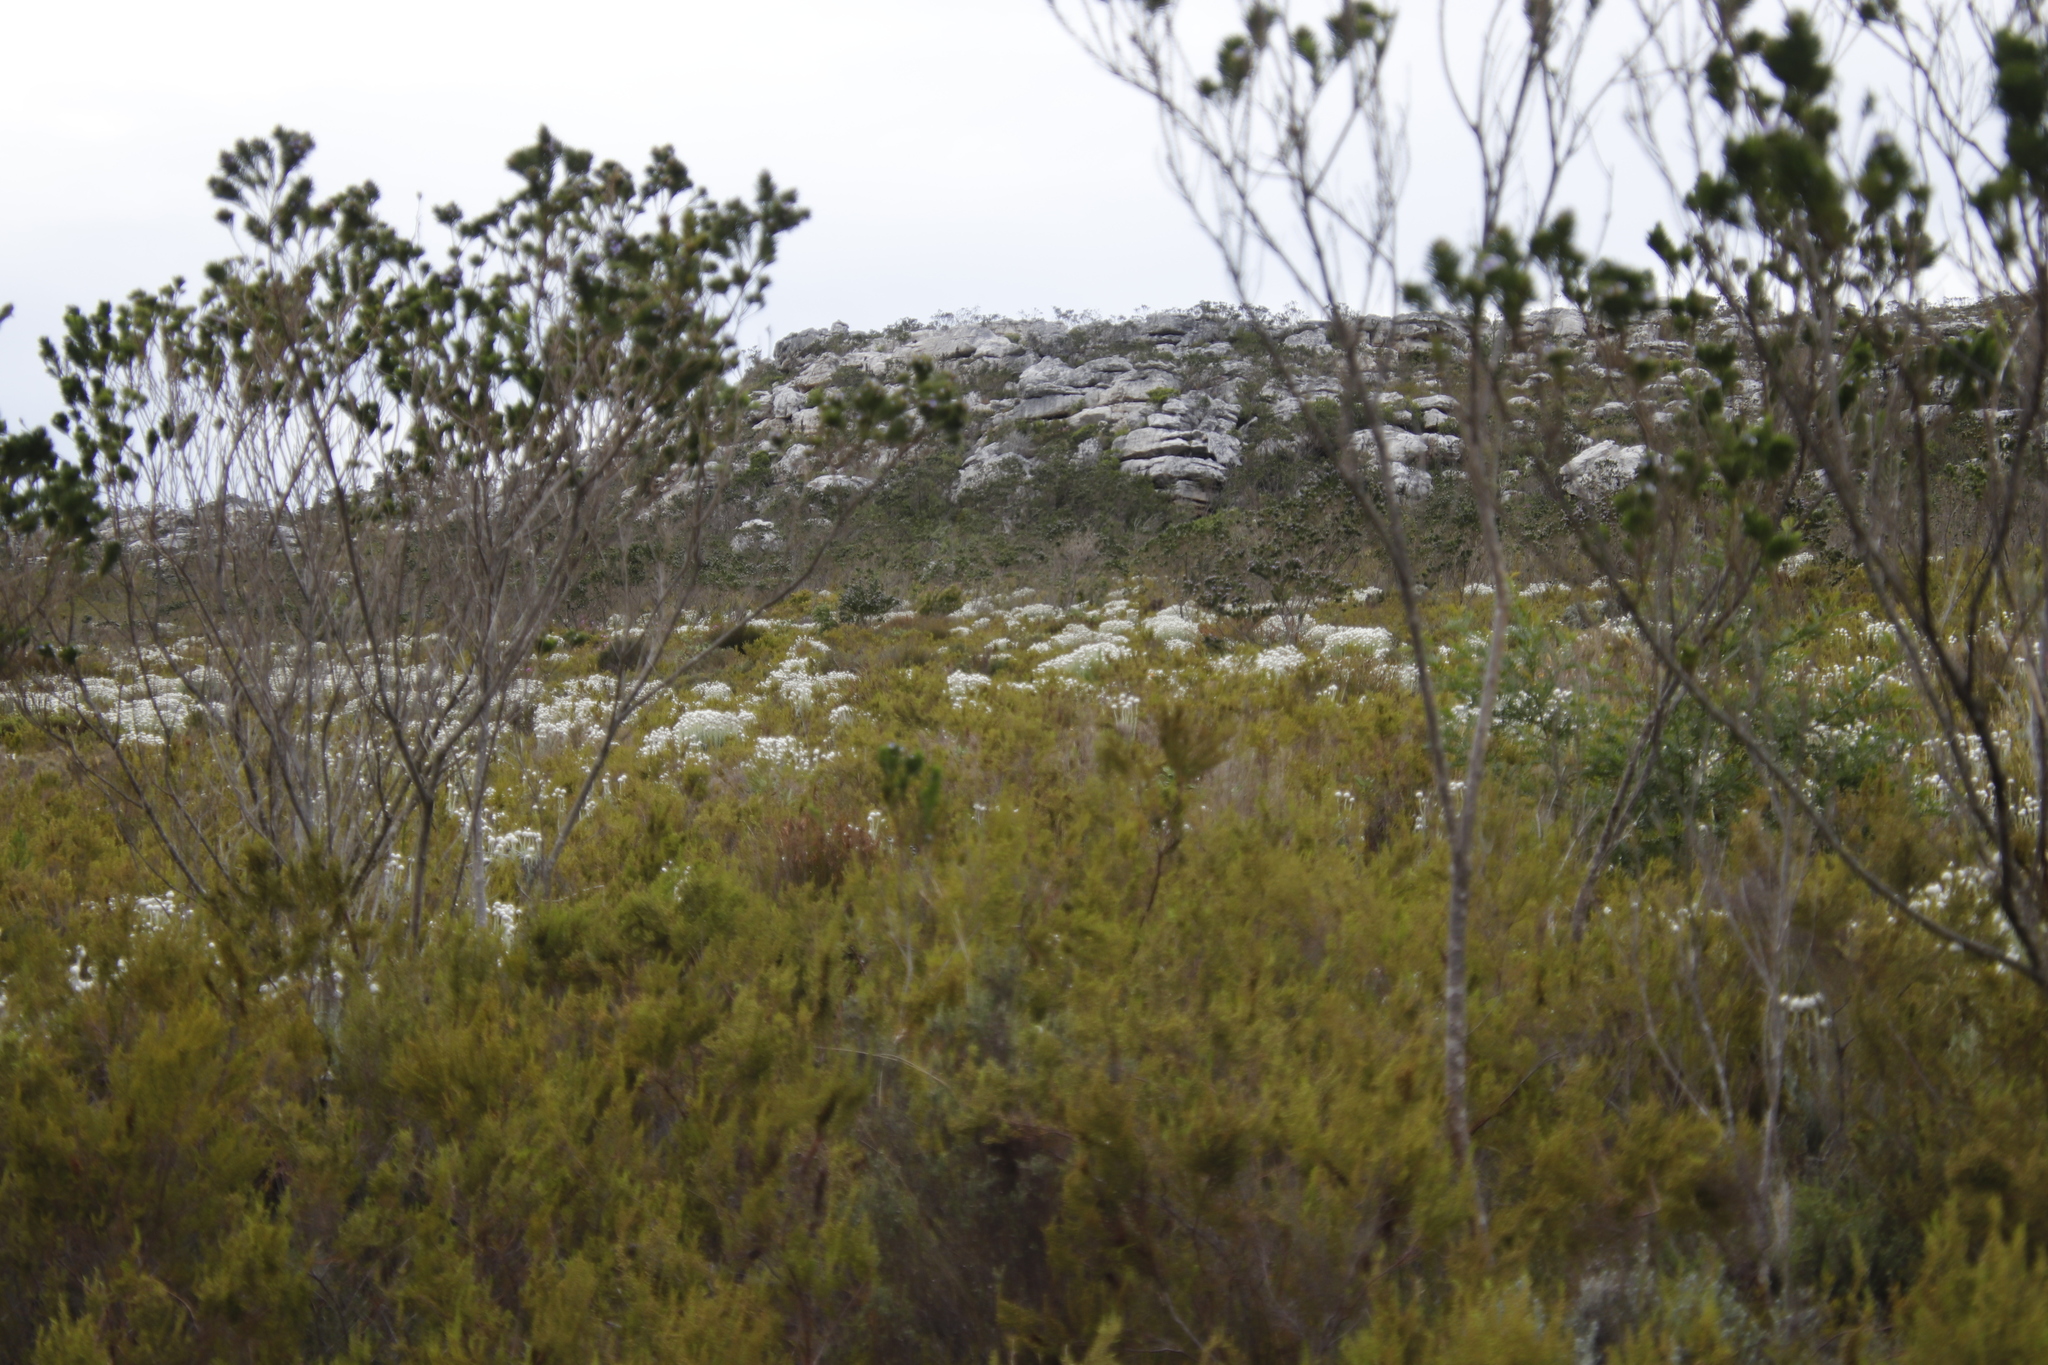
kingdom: Plantae
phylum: Tracheophyta
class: Magnoliopsida
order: Asterales
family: Asteraceae
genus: Syncarpha
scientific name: Syncarpha vestita
